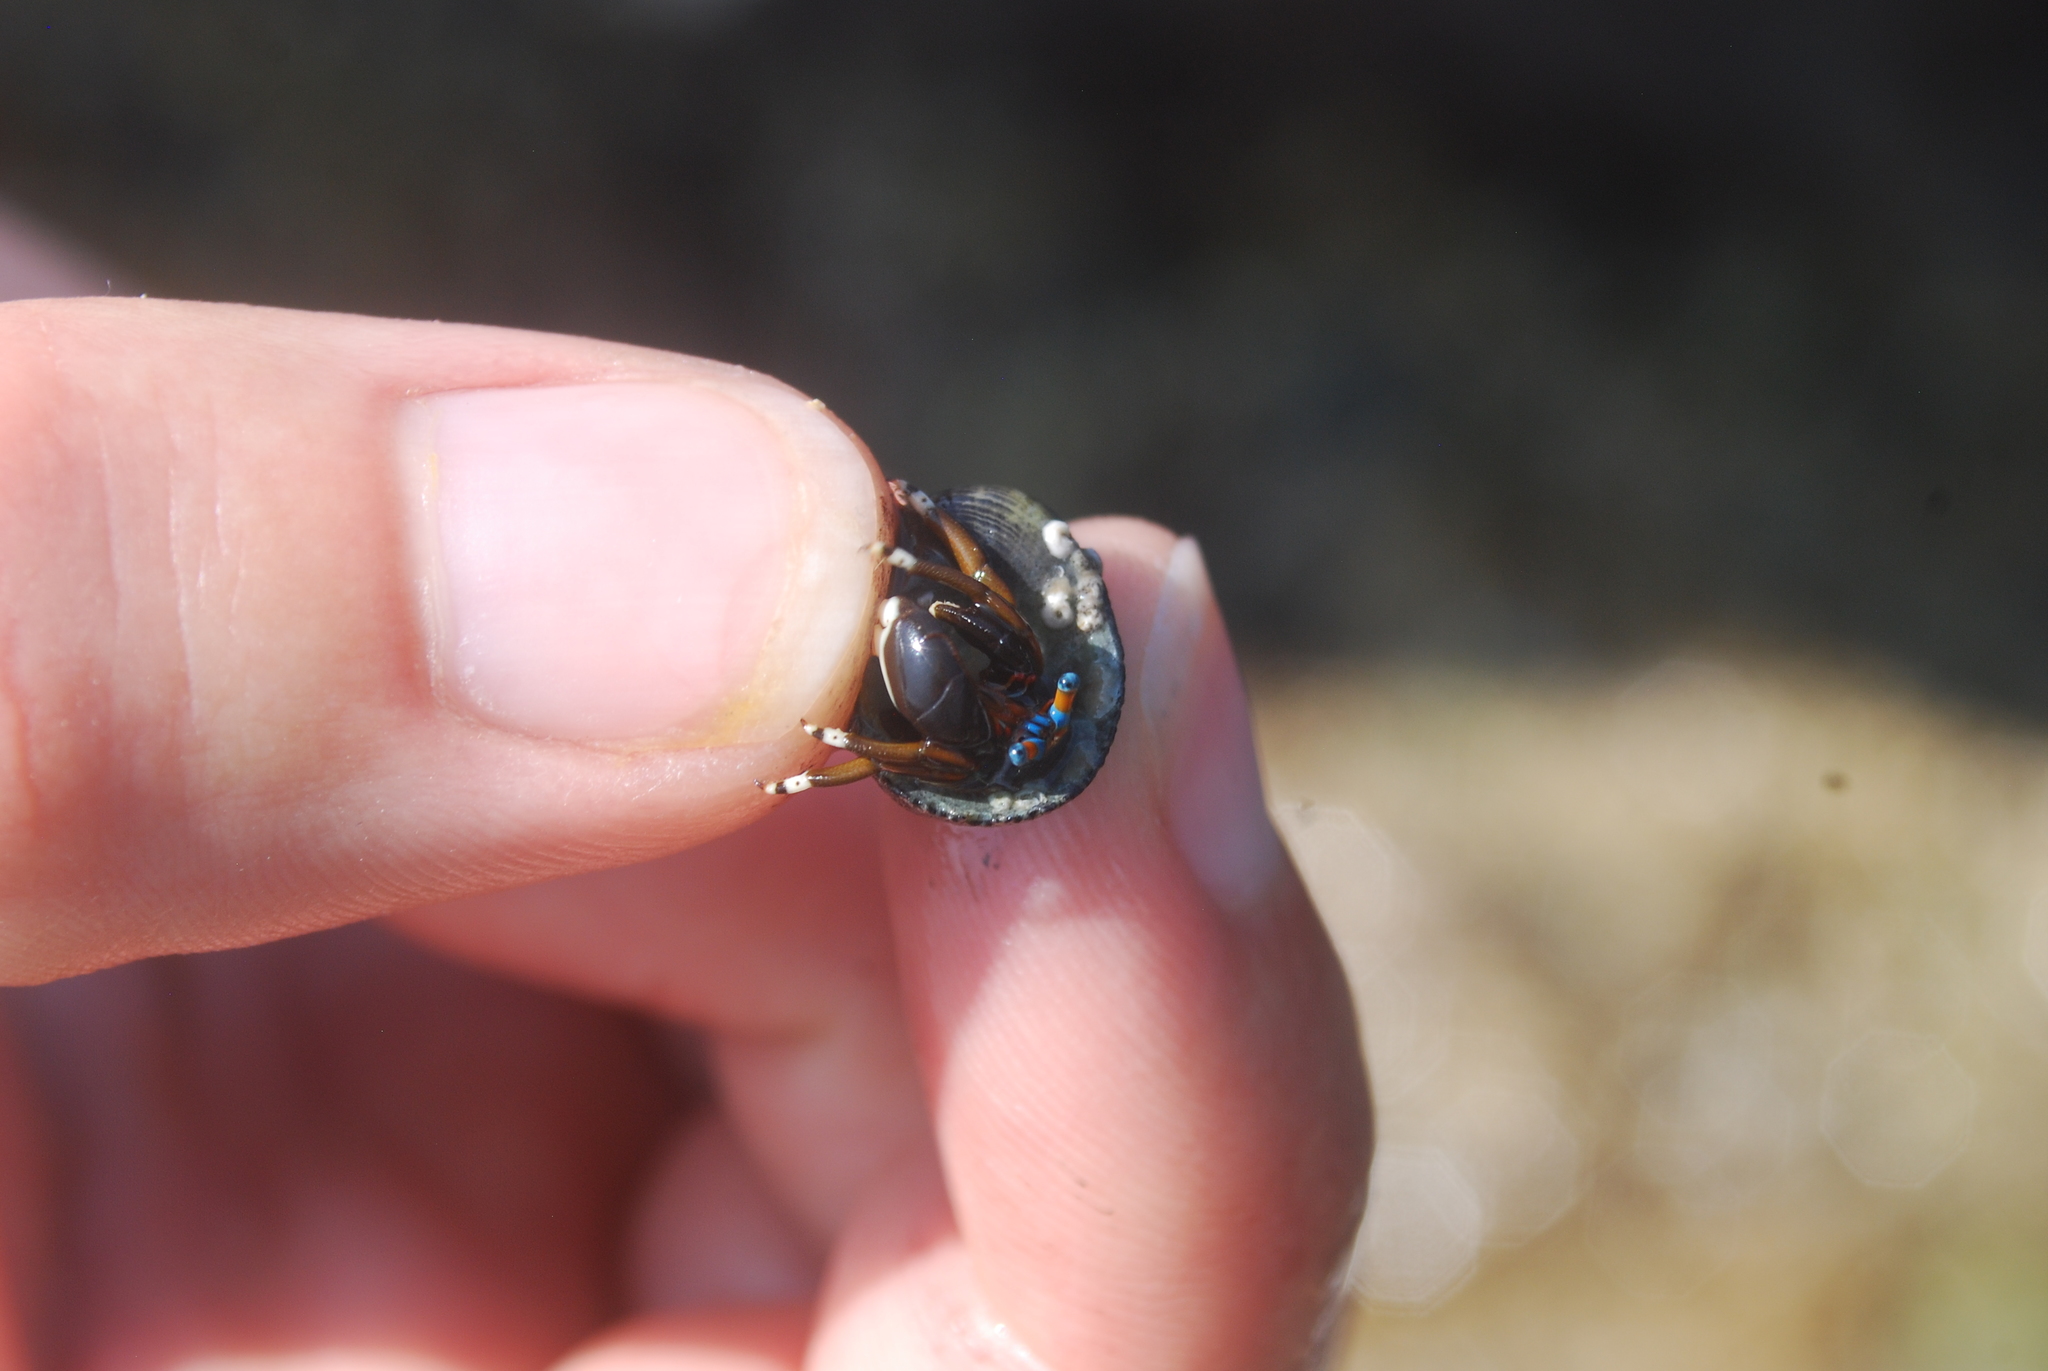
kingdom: Animalia
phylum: Arthropoda
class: Malacostraca
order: Decapoda
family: Diogenidae
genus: Calcinus
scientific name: Calcinus laevimanus
